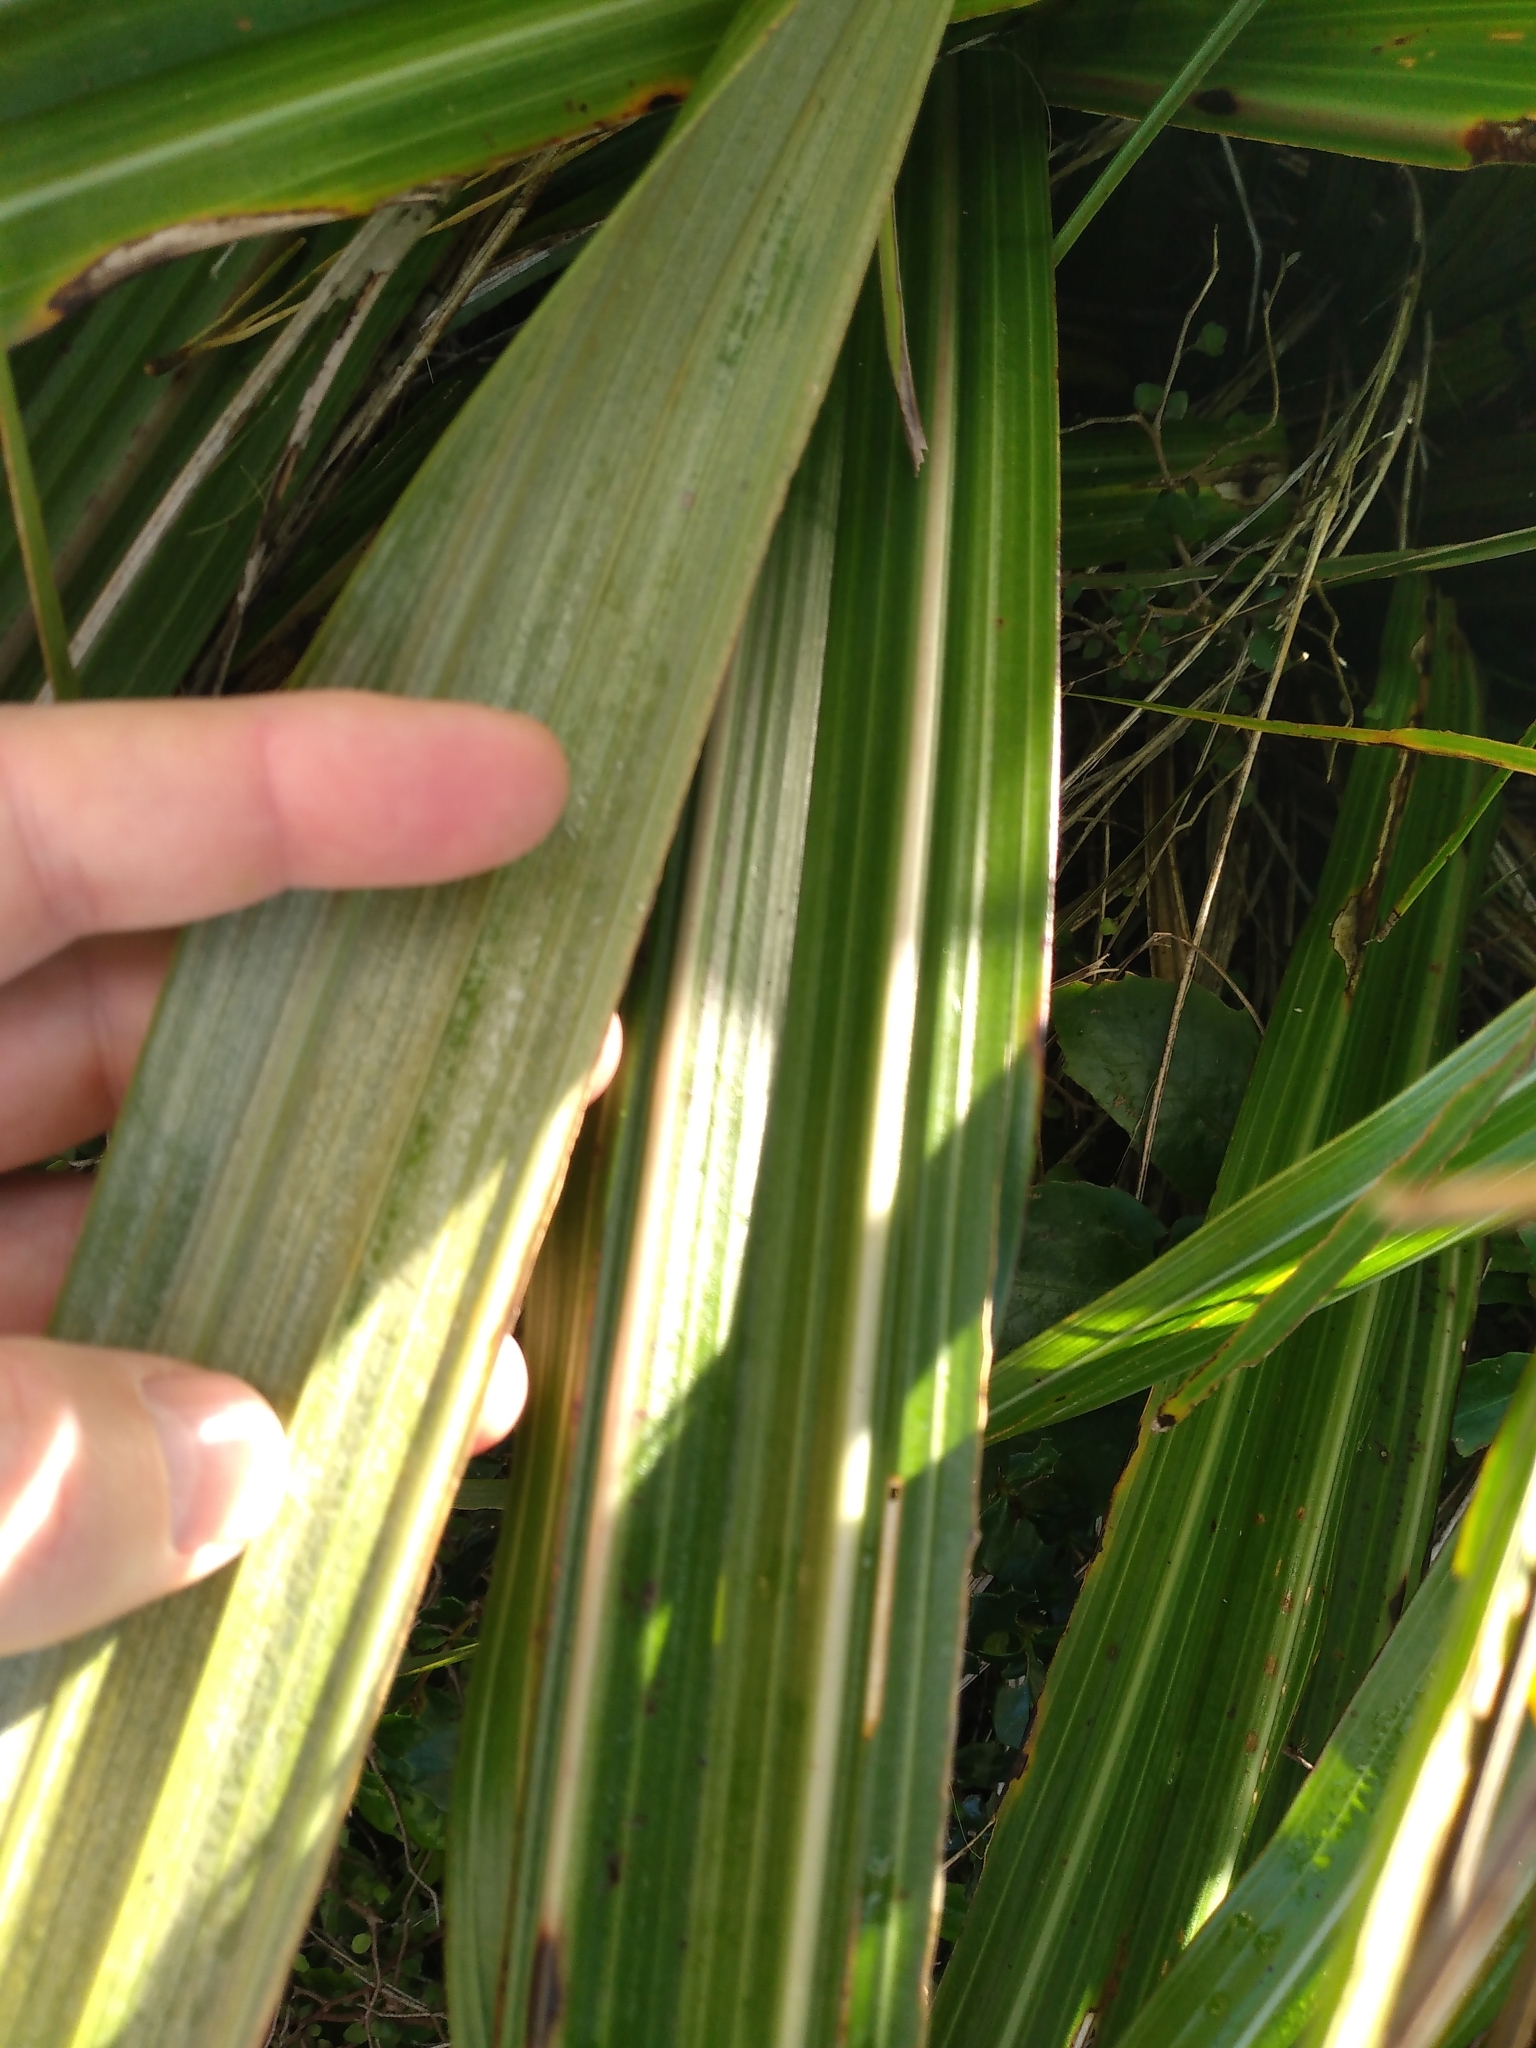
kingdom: Plantae
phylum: Tracheophyta
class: Liliopsida
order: Asparagales
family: Asteliaceae
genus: Astelia
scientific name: Astelia fragrans
